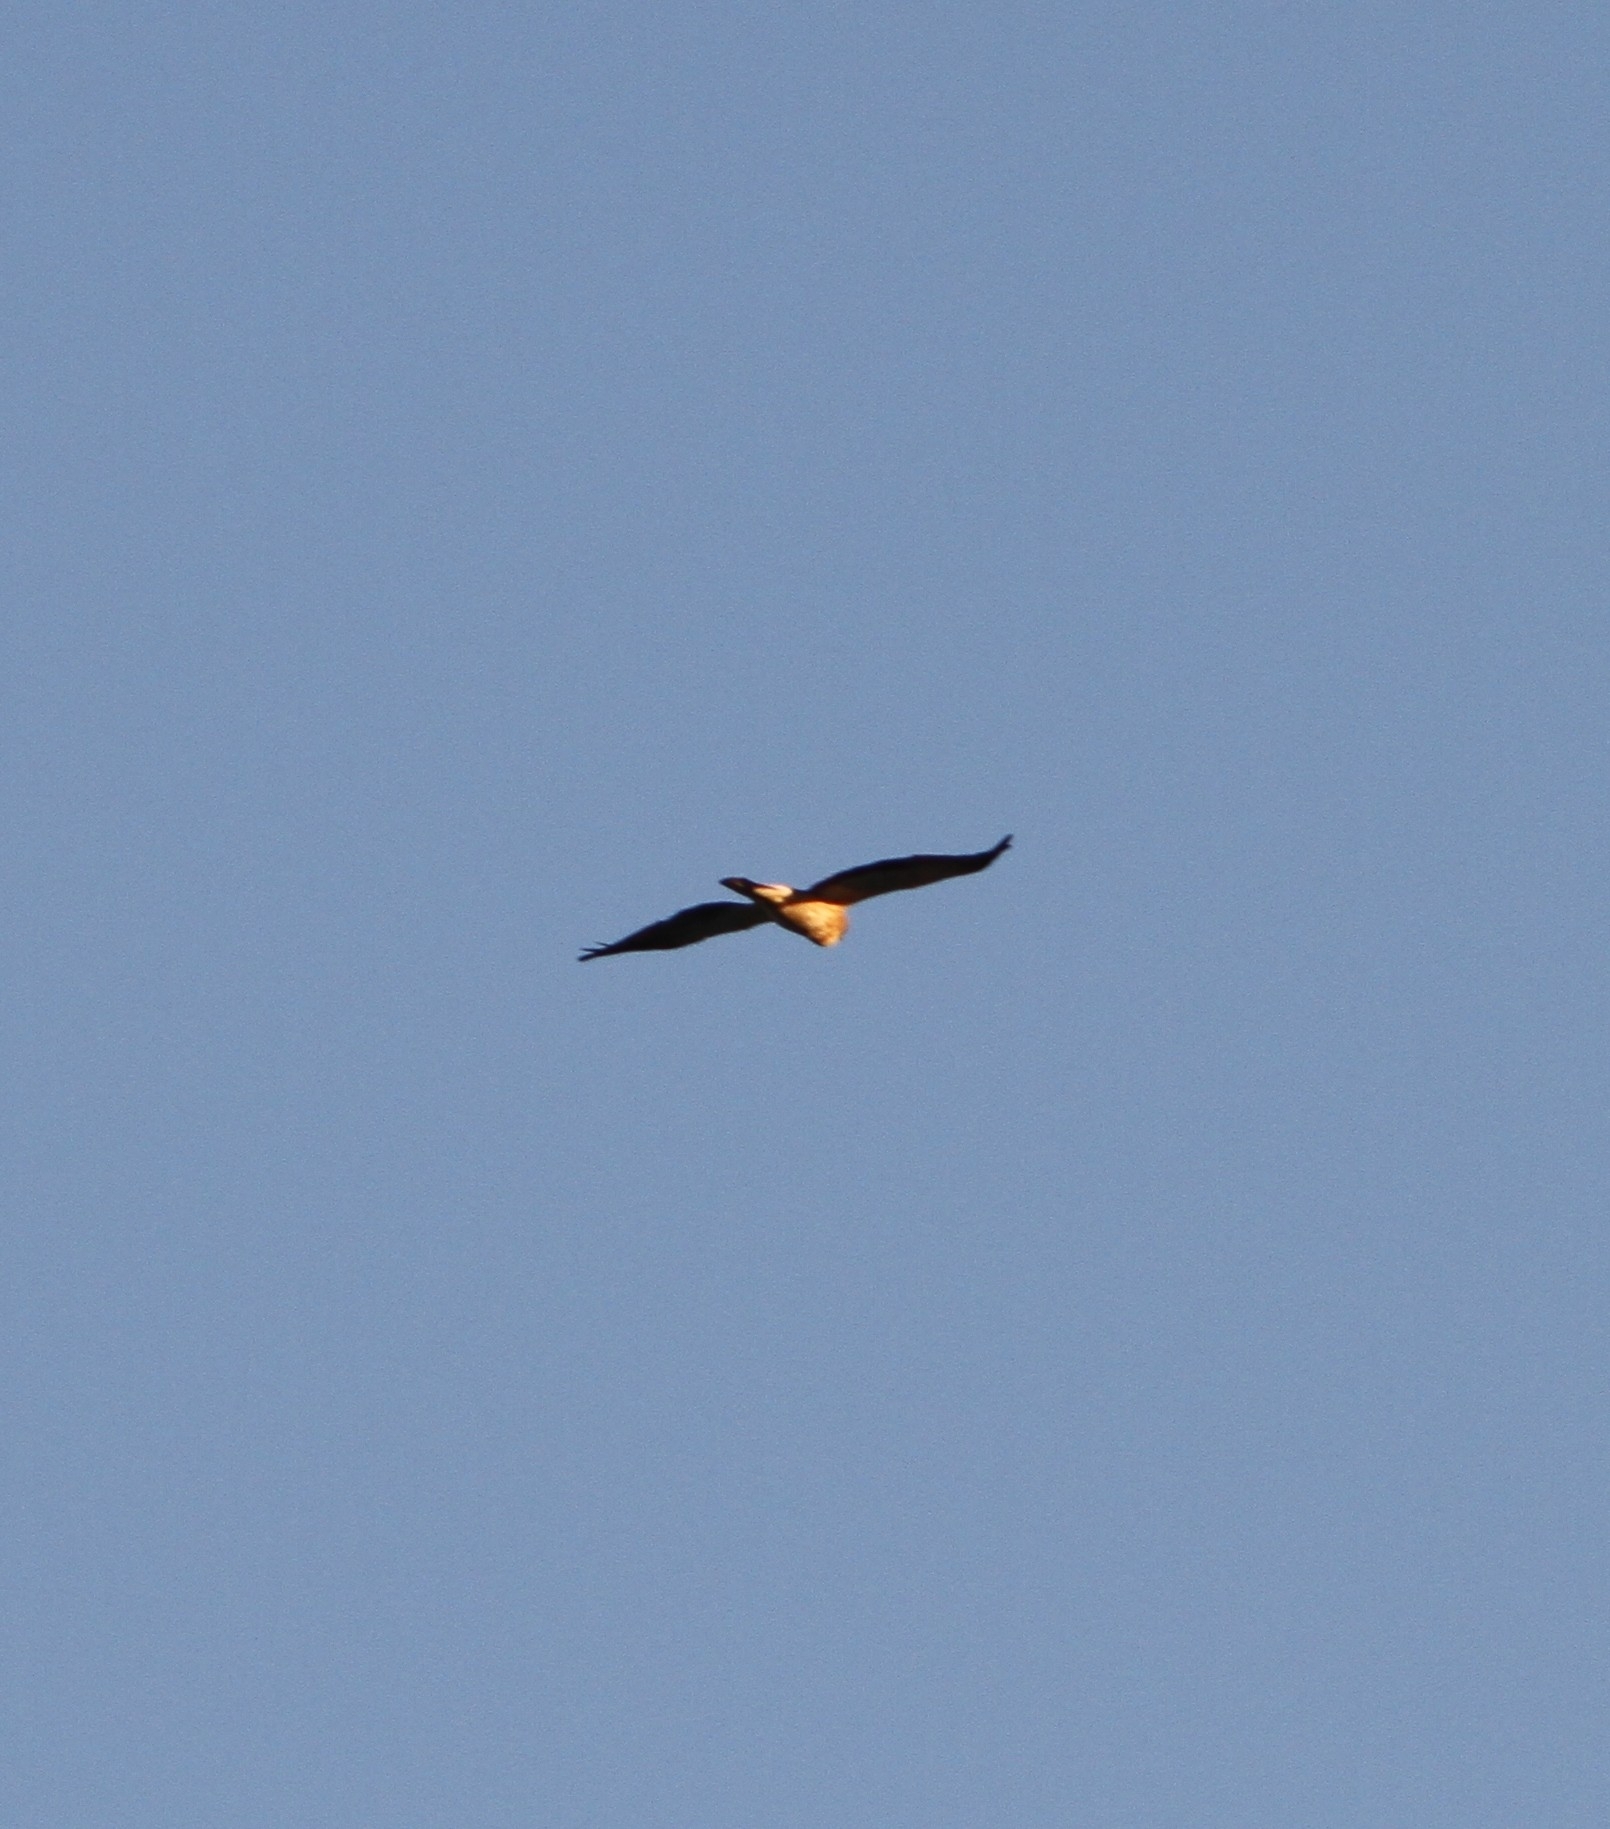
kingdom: Animalia
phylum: Chordata
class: Aves
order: Accipitriformes
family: Accipitridae
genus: Hieraaetus
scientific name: Hieraaetus pennatus
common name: Booted eagle
